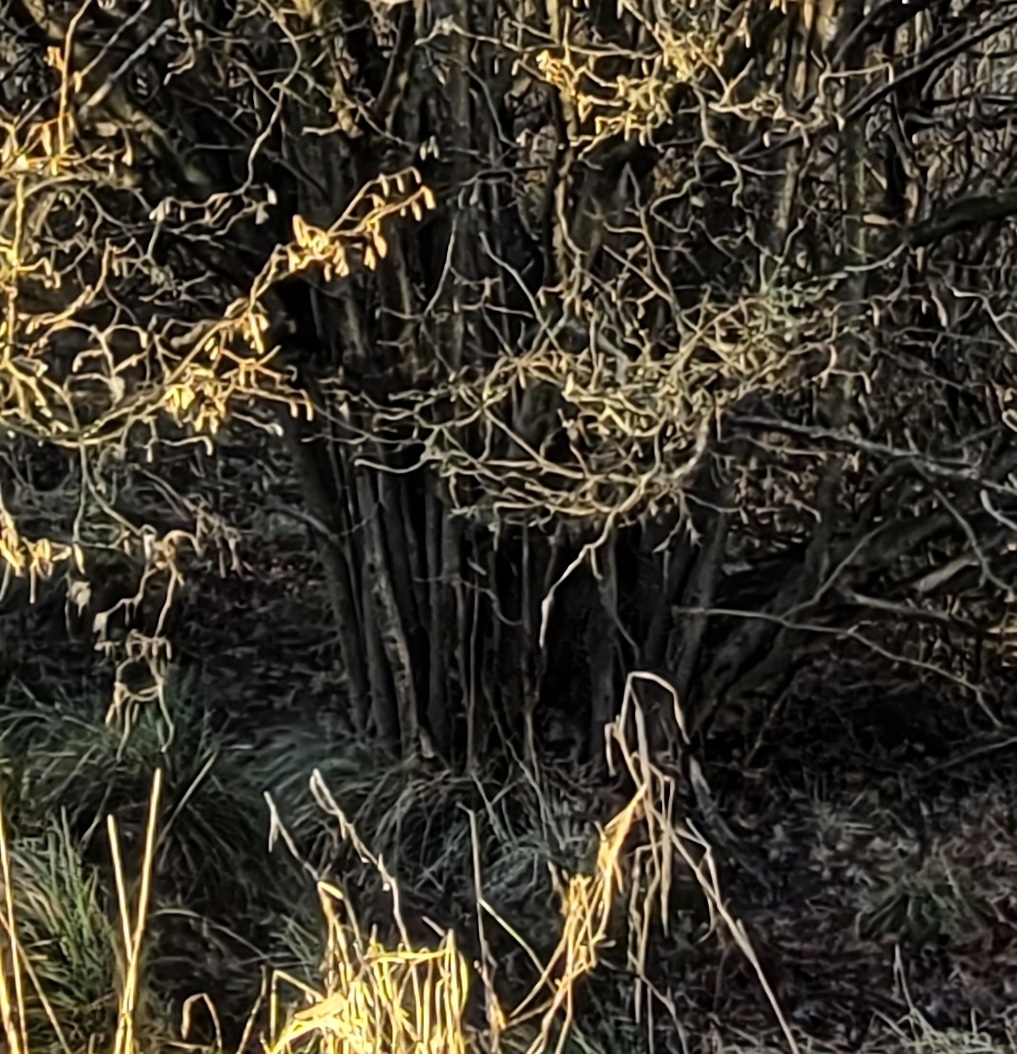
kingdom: Plantae
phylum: Tracheophyta
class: Magnoliopsida
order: Fagales
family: Betulaceae
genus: Corylus
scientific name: Corylus avellana
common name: European hazel
